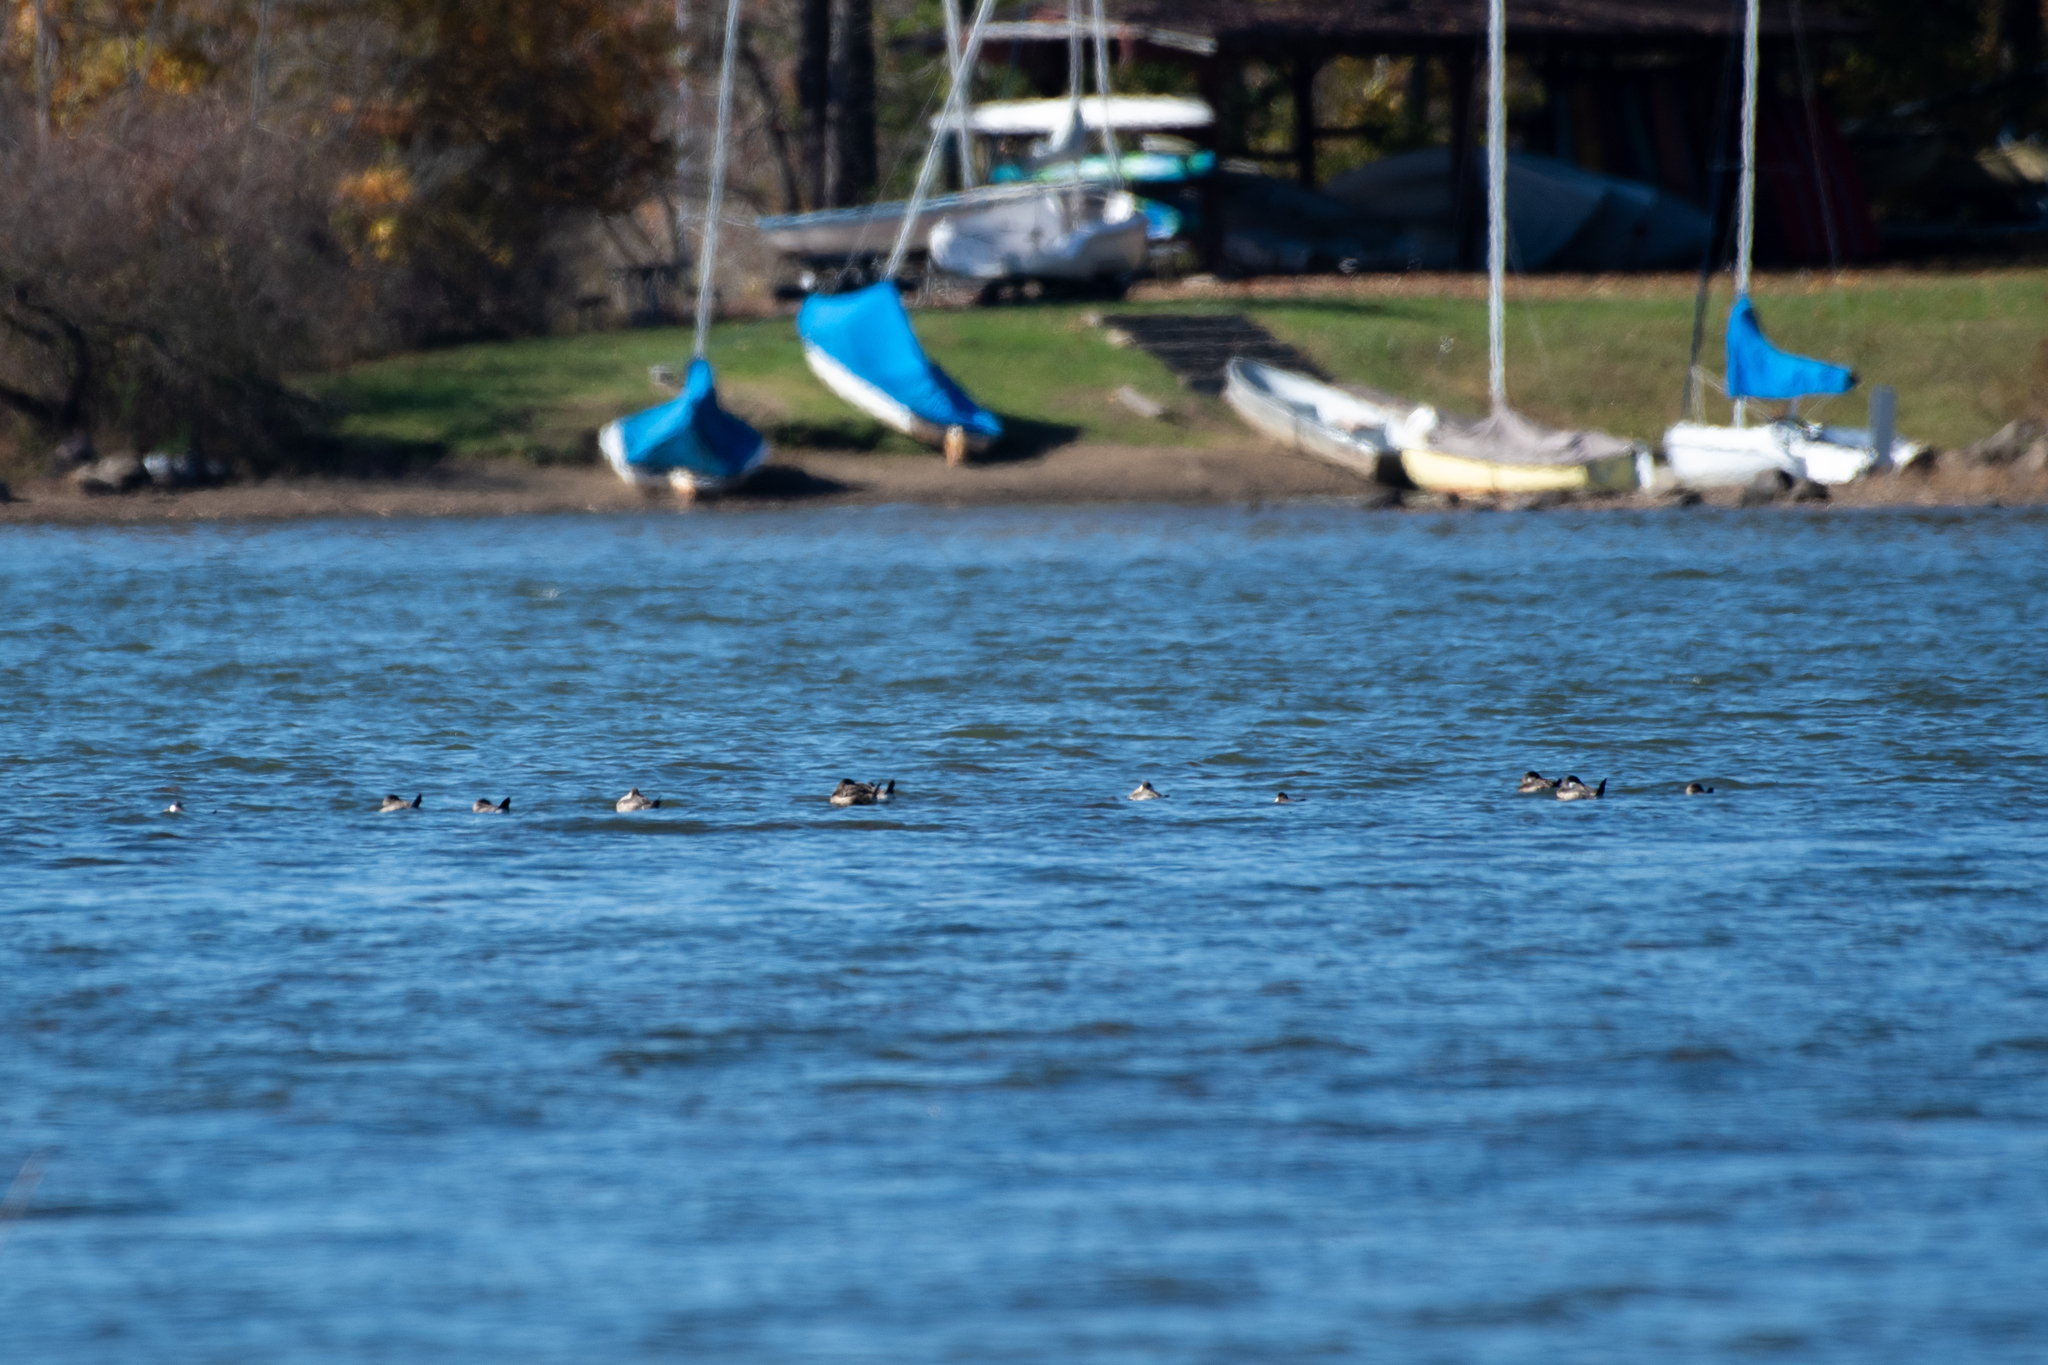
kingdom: Animalia
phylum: Chordata
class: Aves
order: Anseriformes
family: Anatidae
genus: Oxyura
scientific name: Oxyura jamaicensis
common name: Ruddy duck
